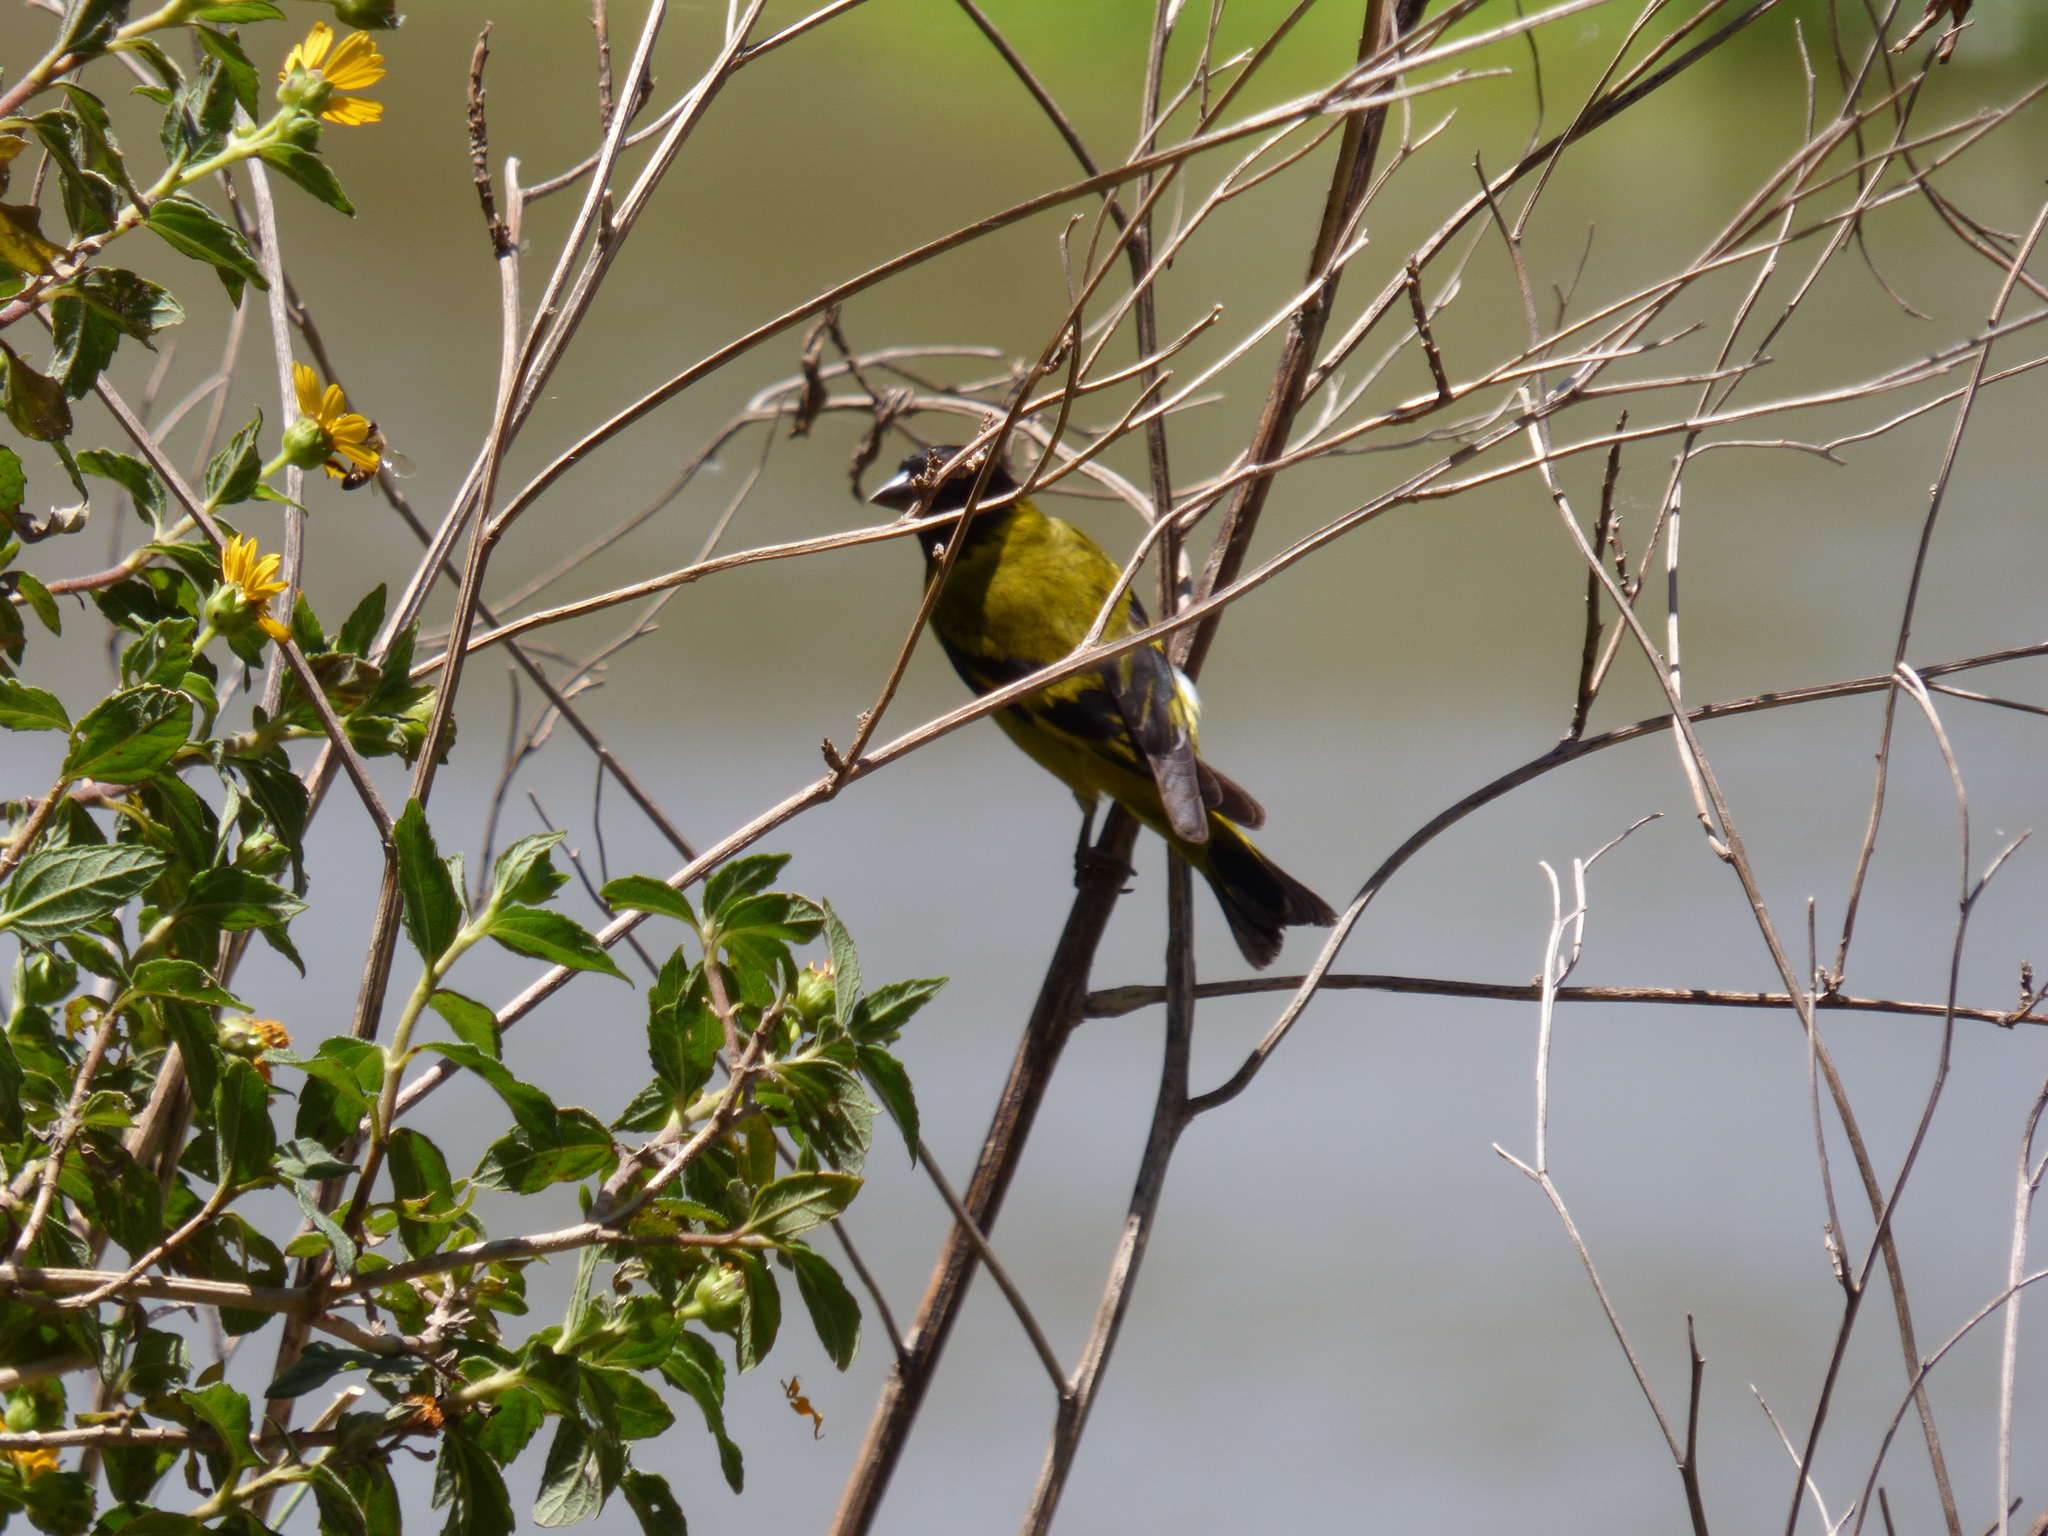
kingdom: Animalia
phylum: Chordata
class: Aves
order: Passeriformes
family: Fringillidae
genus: Spinus
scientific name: Spinus magellanicus
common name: Hooded siskin
